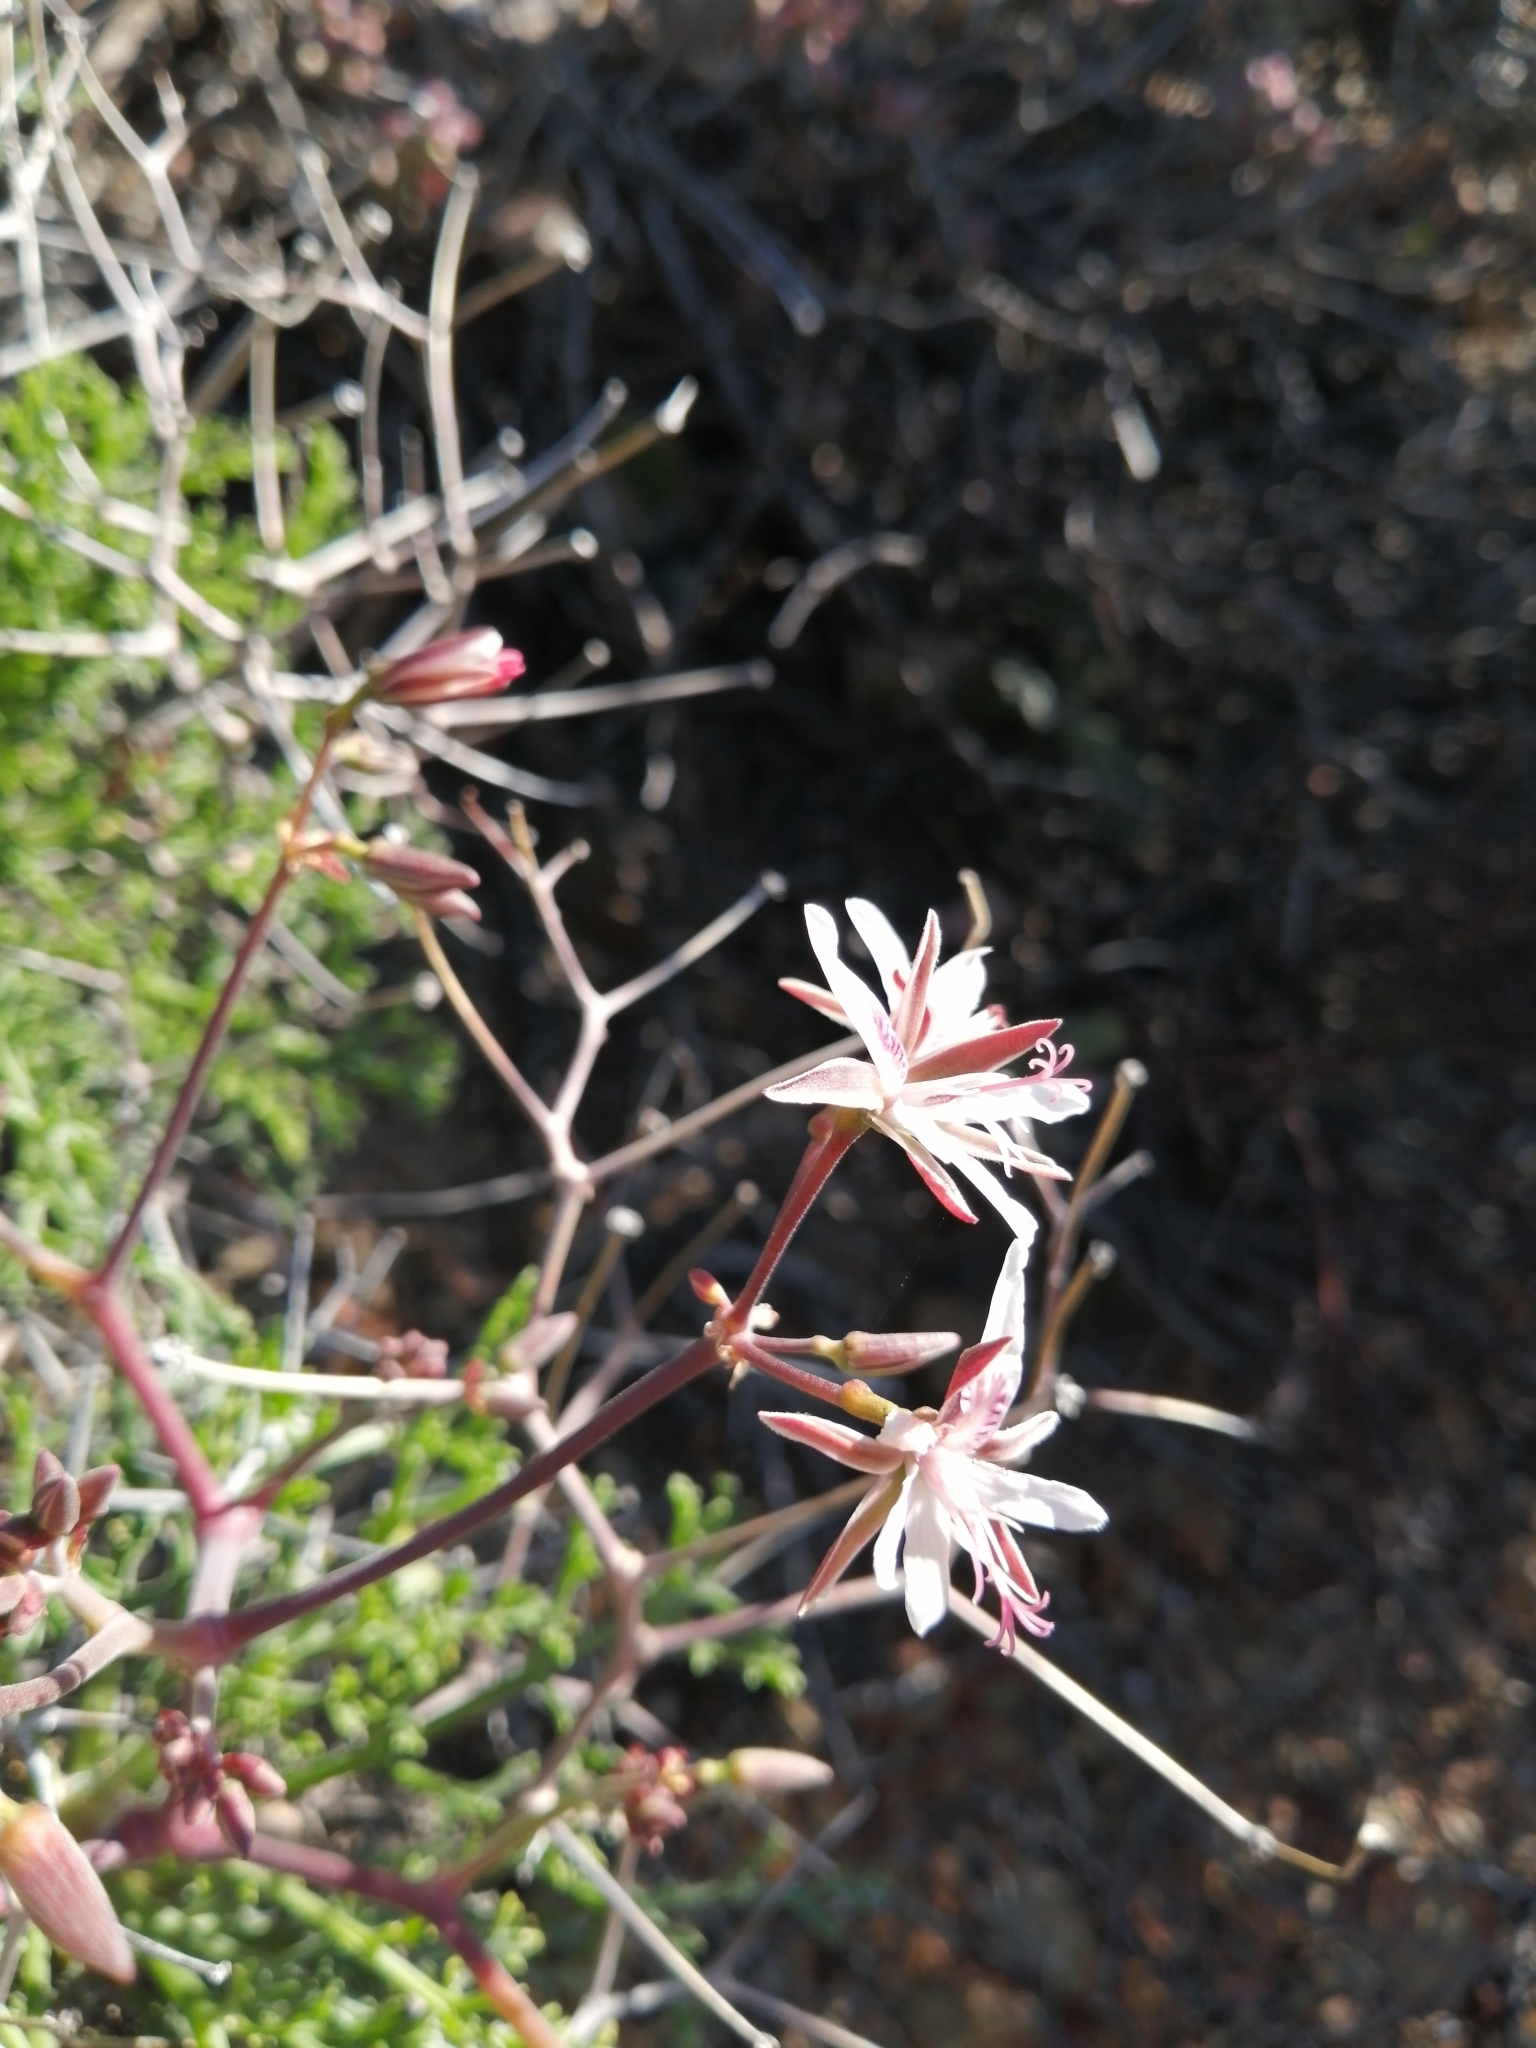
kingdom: Plantae
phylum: Tracheophyta
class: Magnoliopsida
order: Geraniales
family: Geraniaceae
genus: Pelargonium
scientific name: Pelargonium crithmifolium
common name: Samphire-leaf pelargonium
